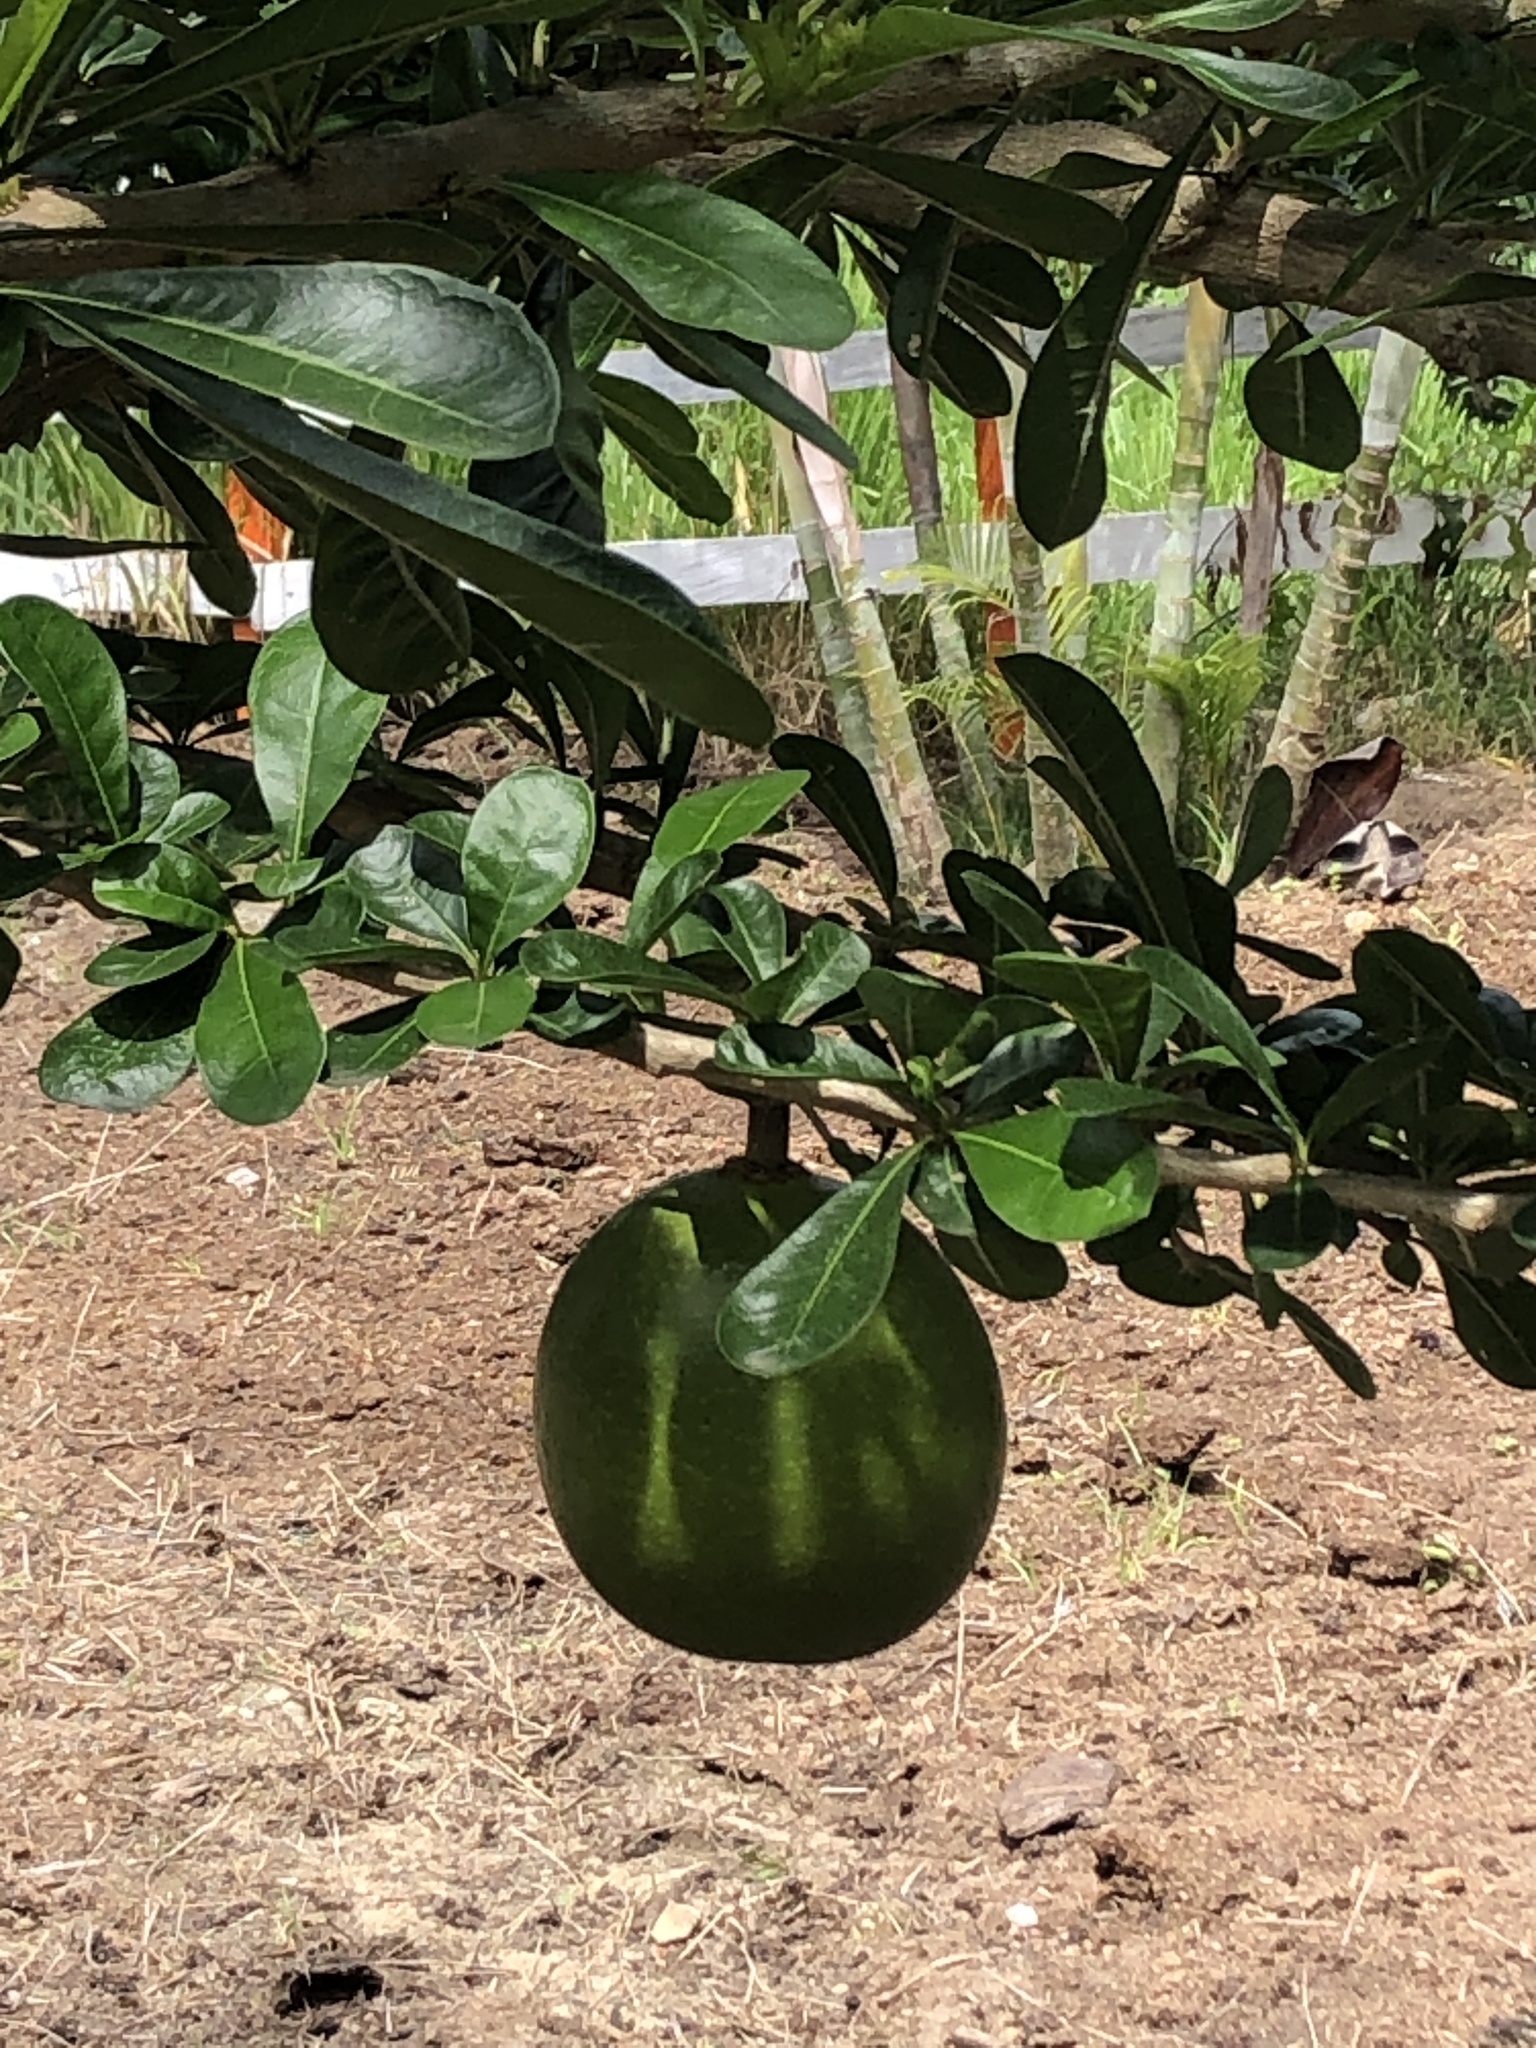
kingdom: Plantae
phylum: Tracheophyta
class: Magnoliopsida
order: Lamiales
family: Bignoniaceae
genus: Crescentia
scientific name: Crescentia cujete
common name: Calabash
